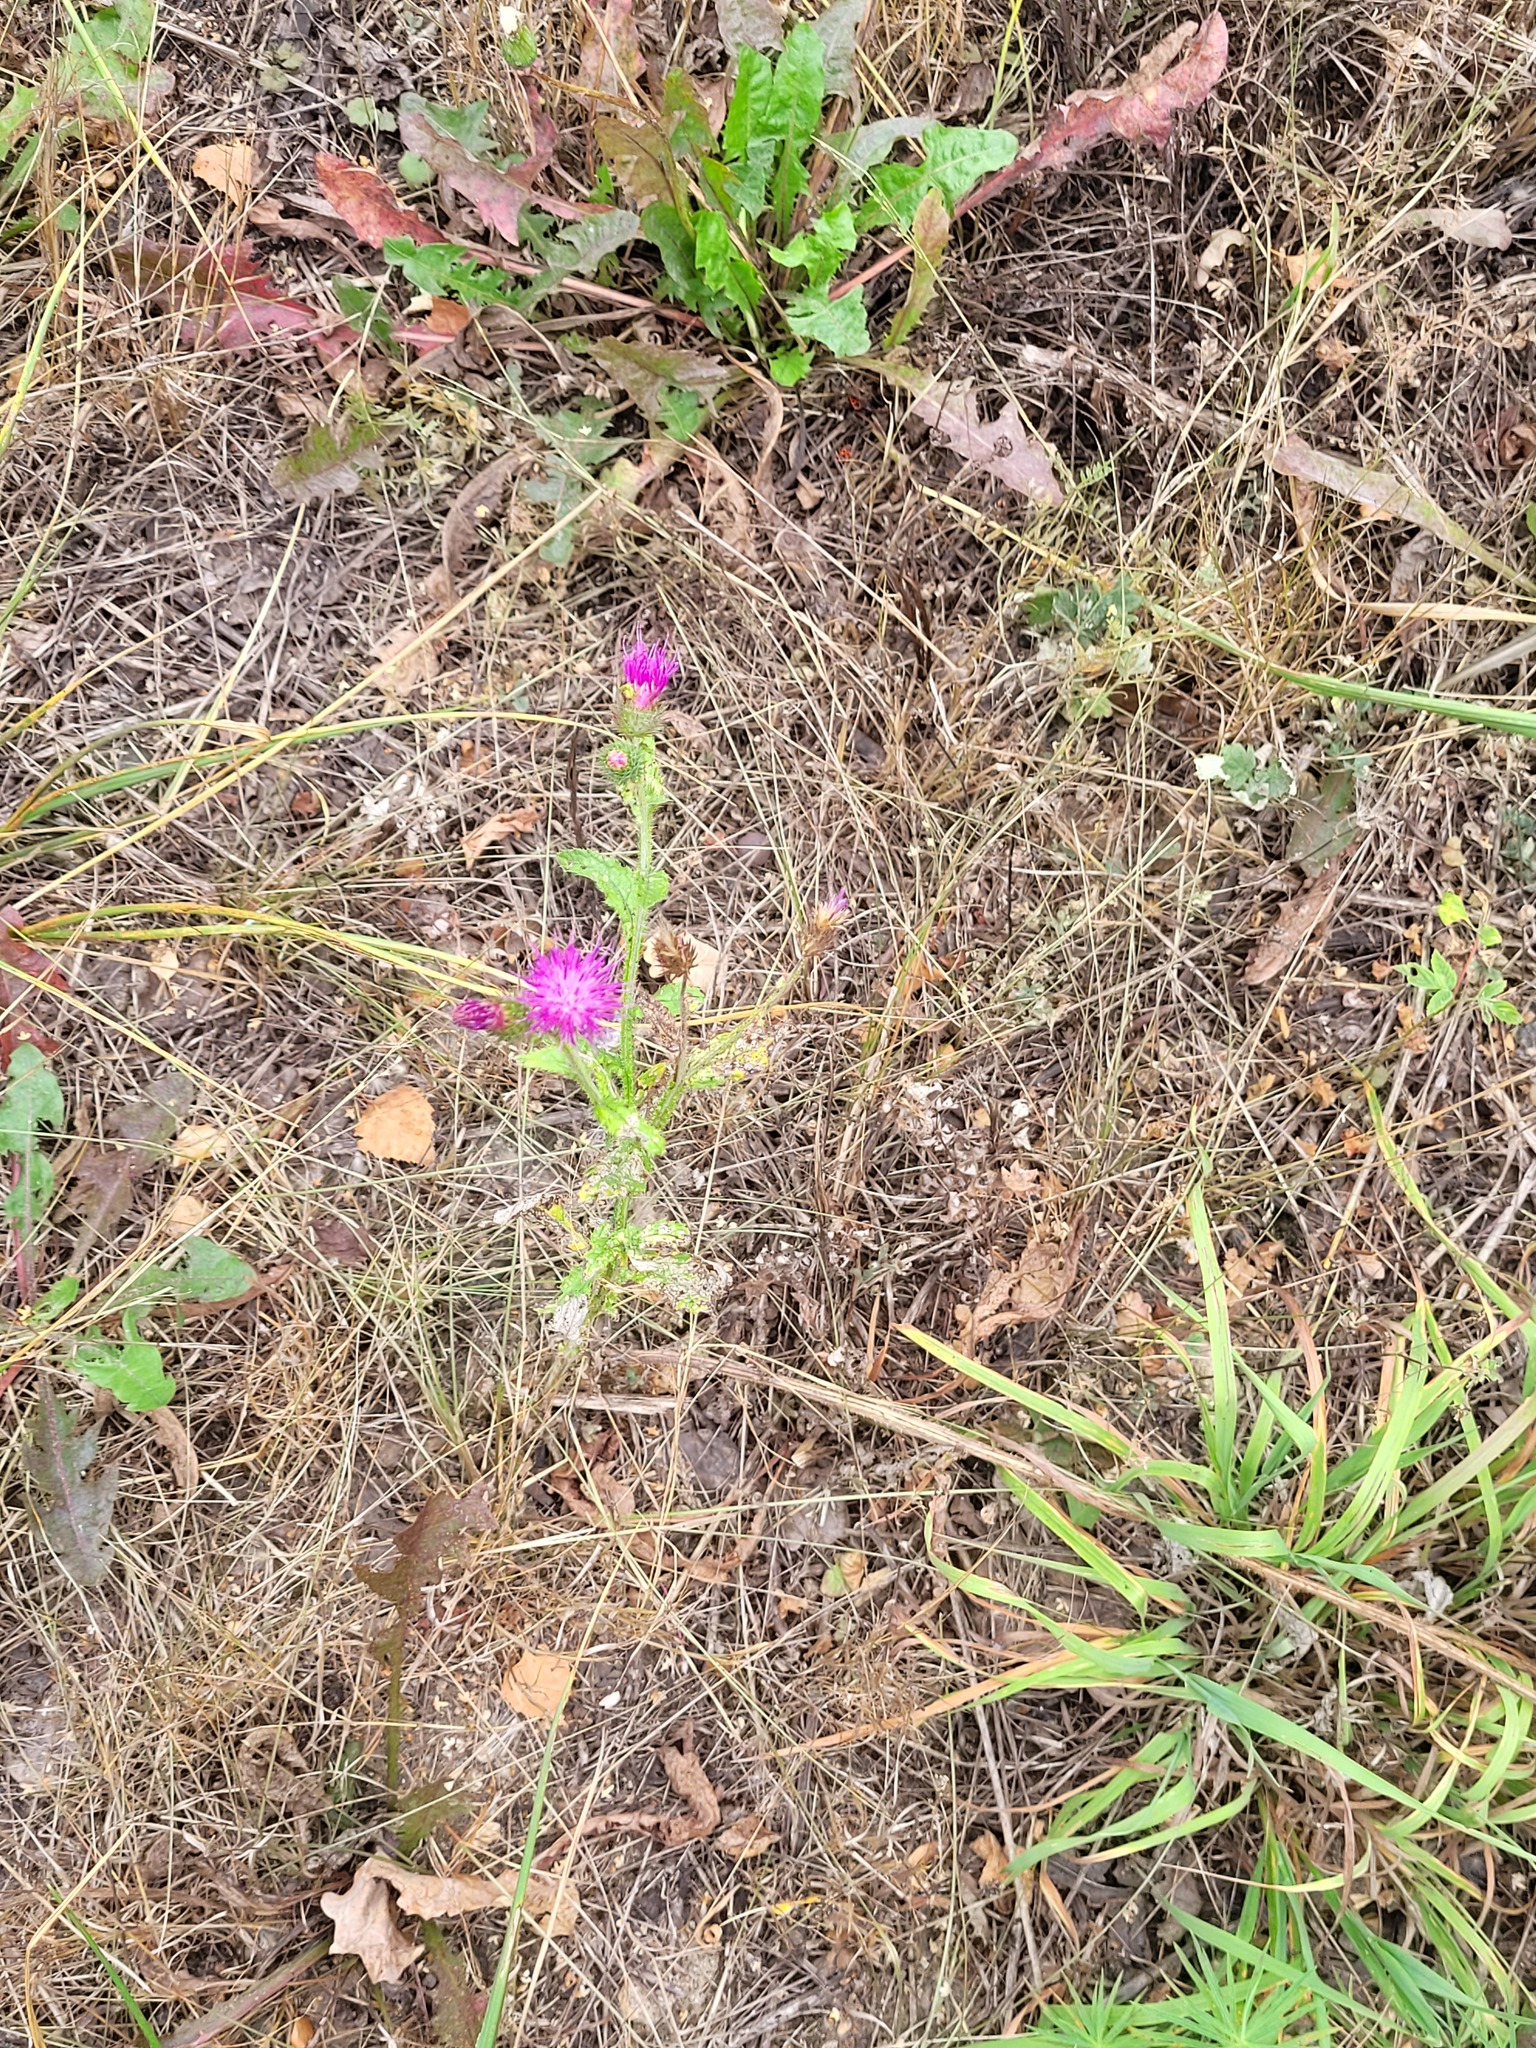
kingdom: Plantae
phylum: Tracheophyta
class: Magnoliopsida
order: Asterales
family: Asteraceae
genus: Carduus
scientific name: Carduus crispus
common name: Welted thistle
